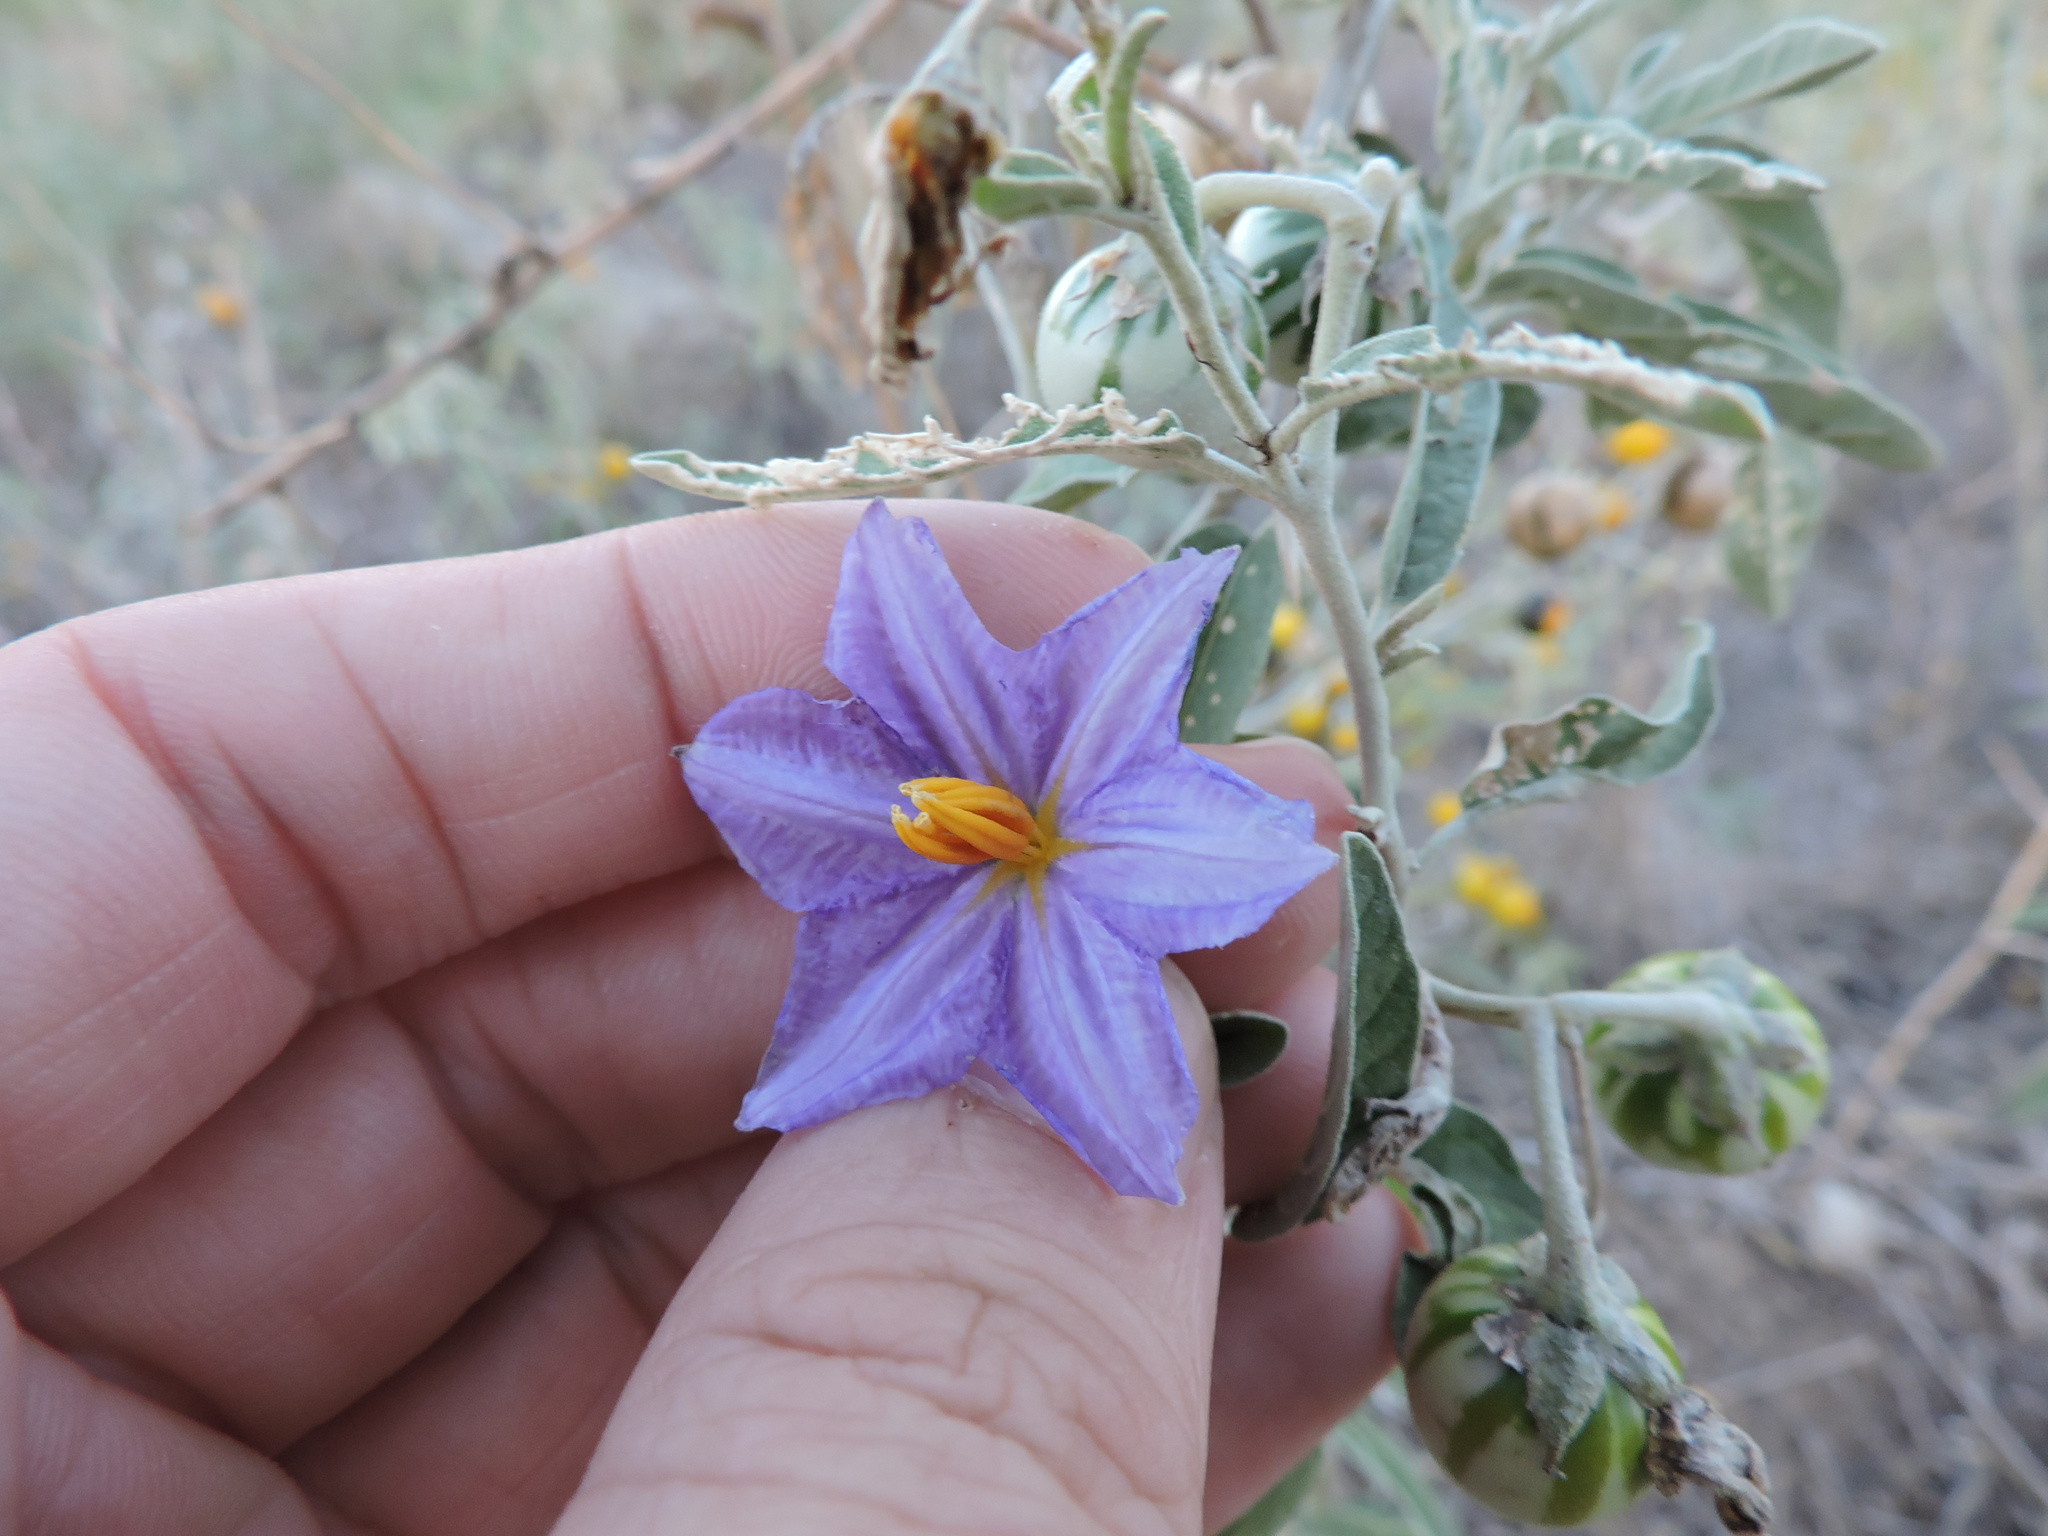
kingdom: Plantae
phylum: Tracheophyta
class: Magnoliopsida
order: Solanales
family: Solanaceae
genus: Solanum
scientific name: Solanum elaeagnifolium
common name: Silverleaf nightshade
